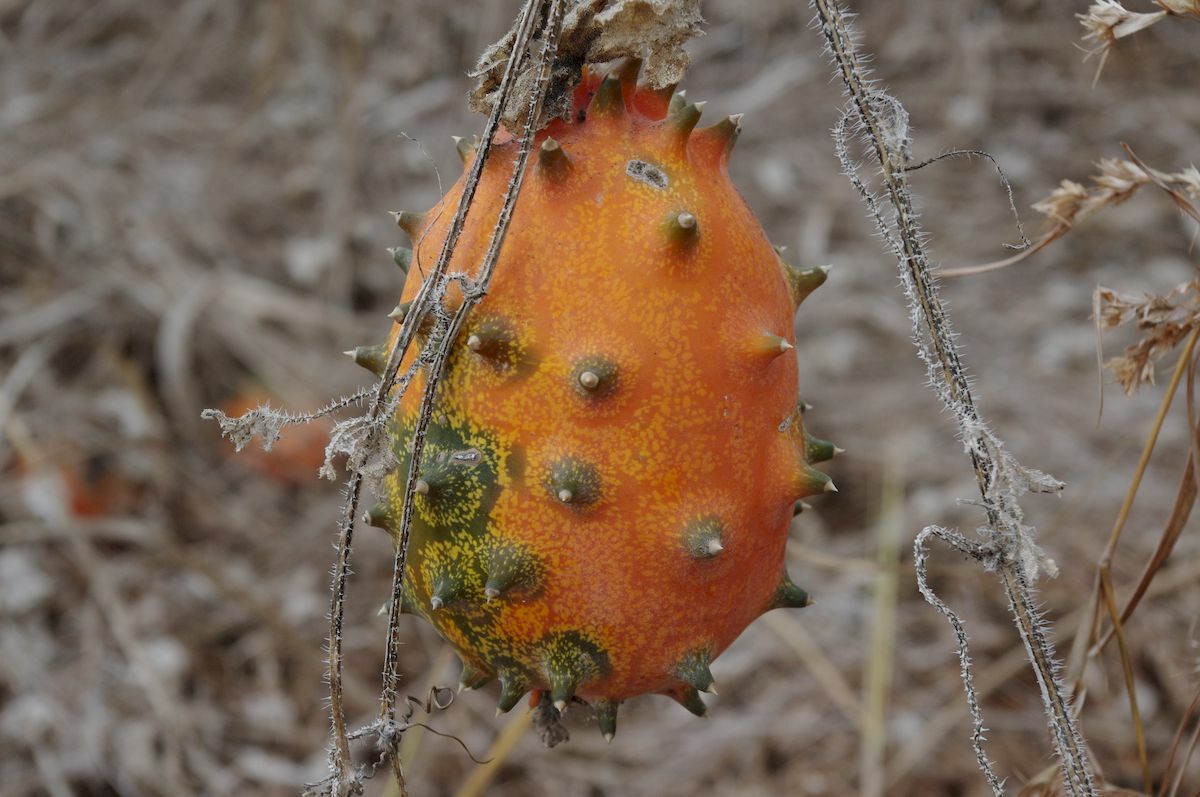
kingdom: Plantae
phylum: Tracheophyta
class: Magnoliopsida
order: Cucurbitales
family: Cucurbitaceae
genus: Cucumis
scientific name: Cucumis metuliferus
